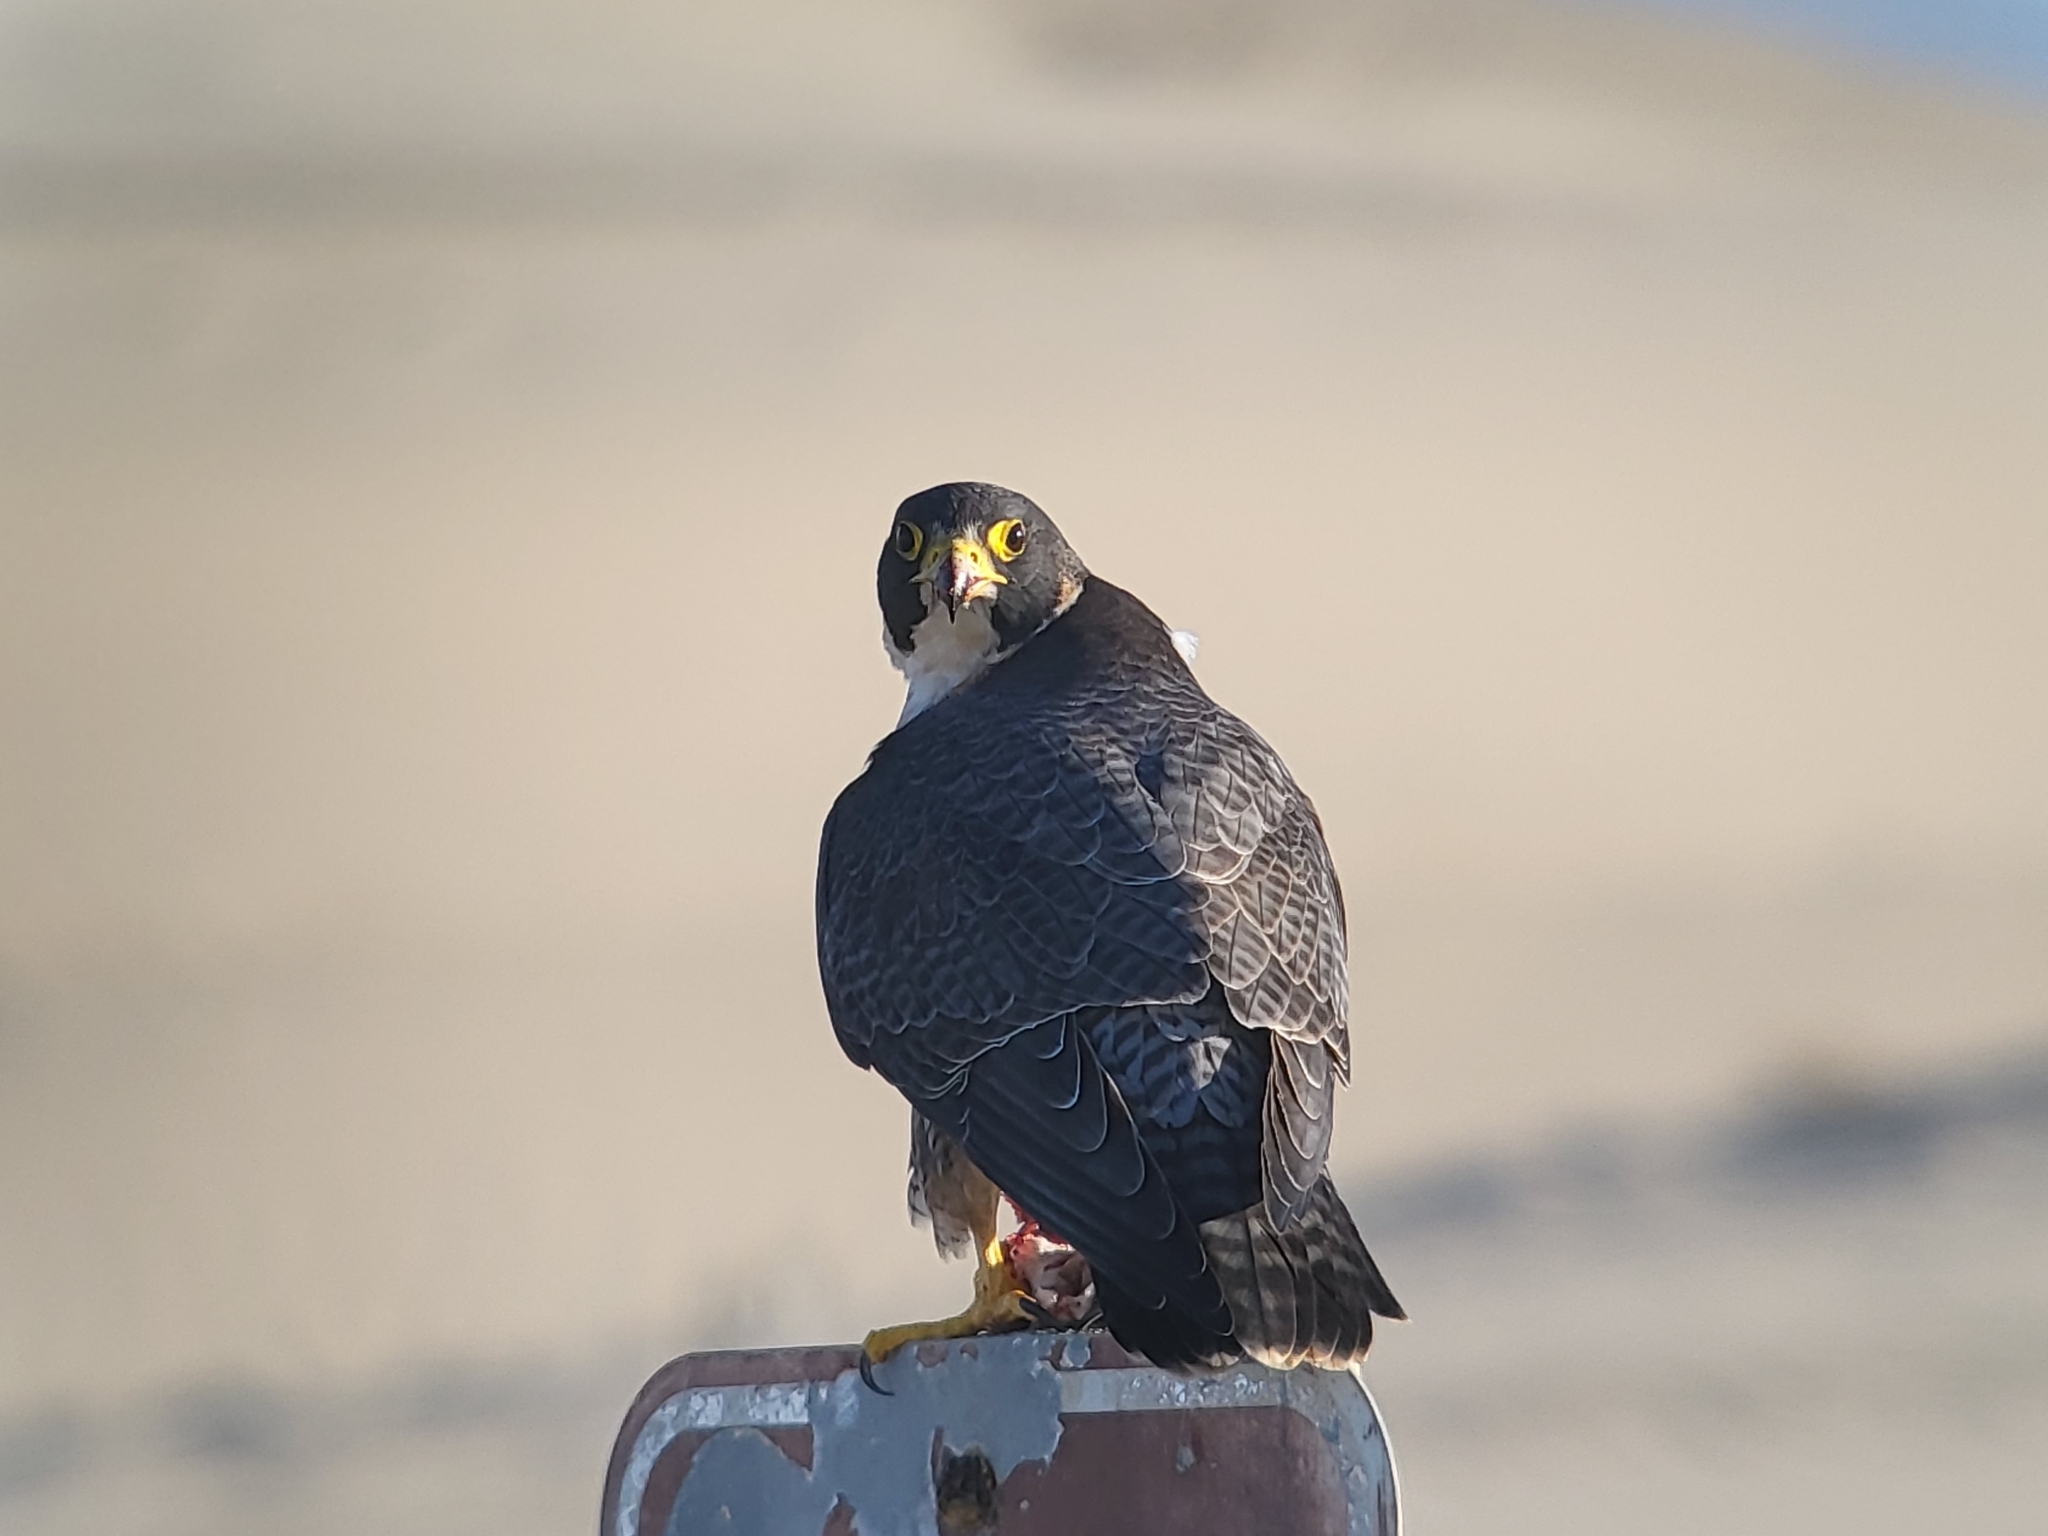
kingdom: Animalia
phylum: Chordata
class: Aves
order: Falconiformes
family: Falconidae
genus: Falco
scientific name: Falco peregrinus
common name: Peregrine falcon
